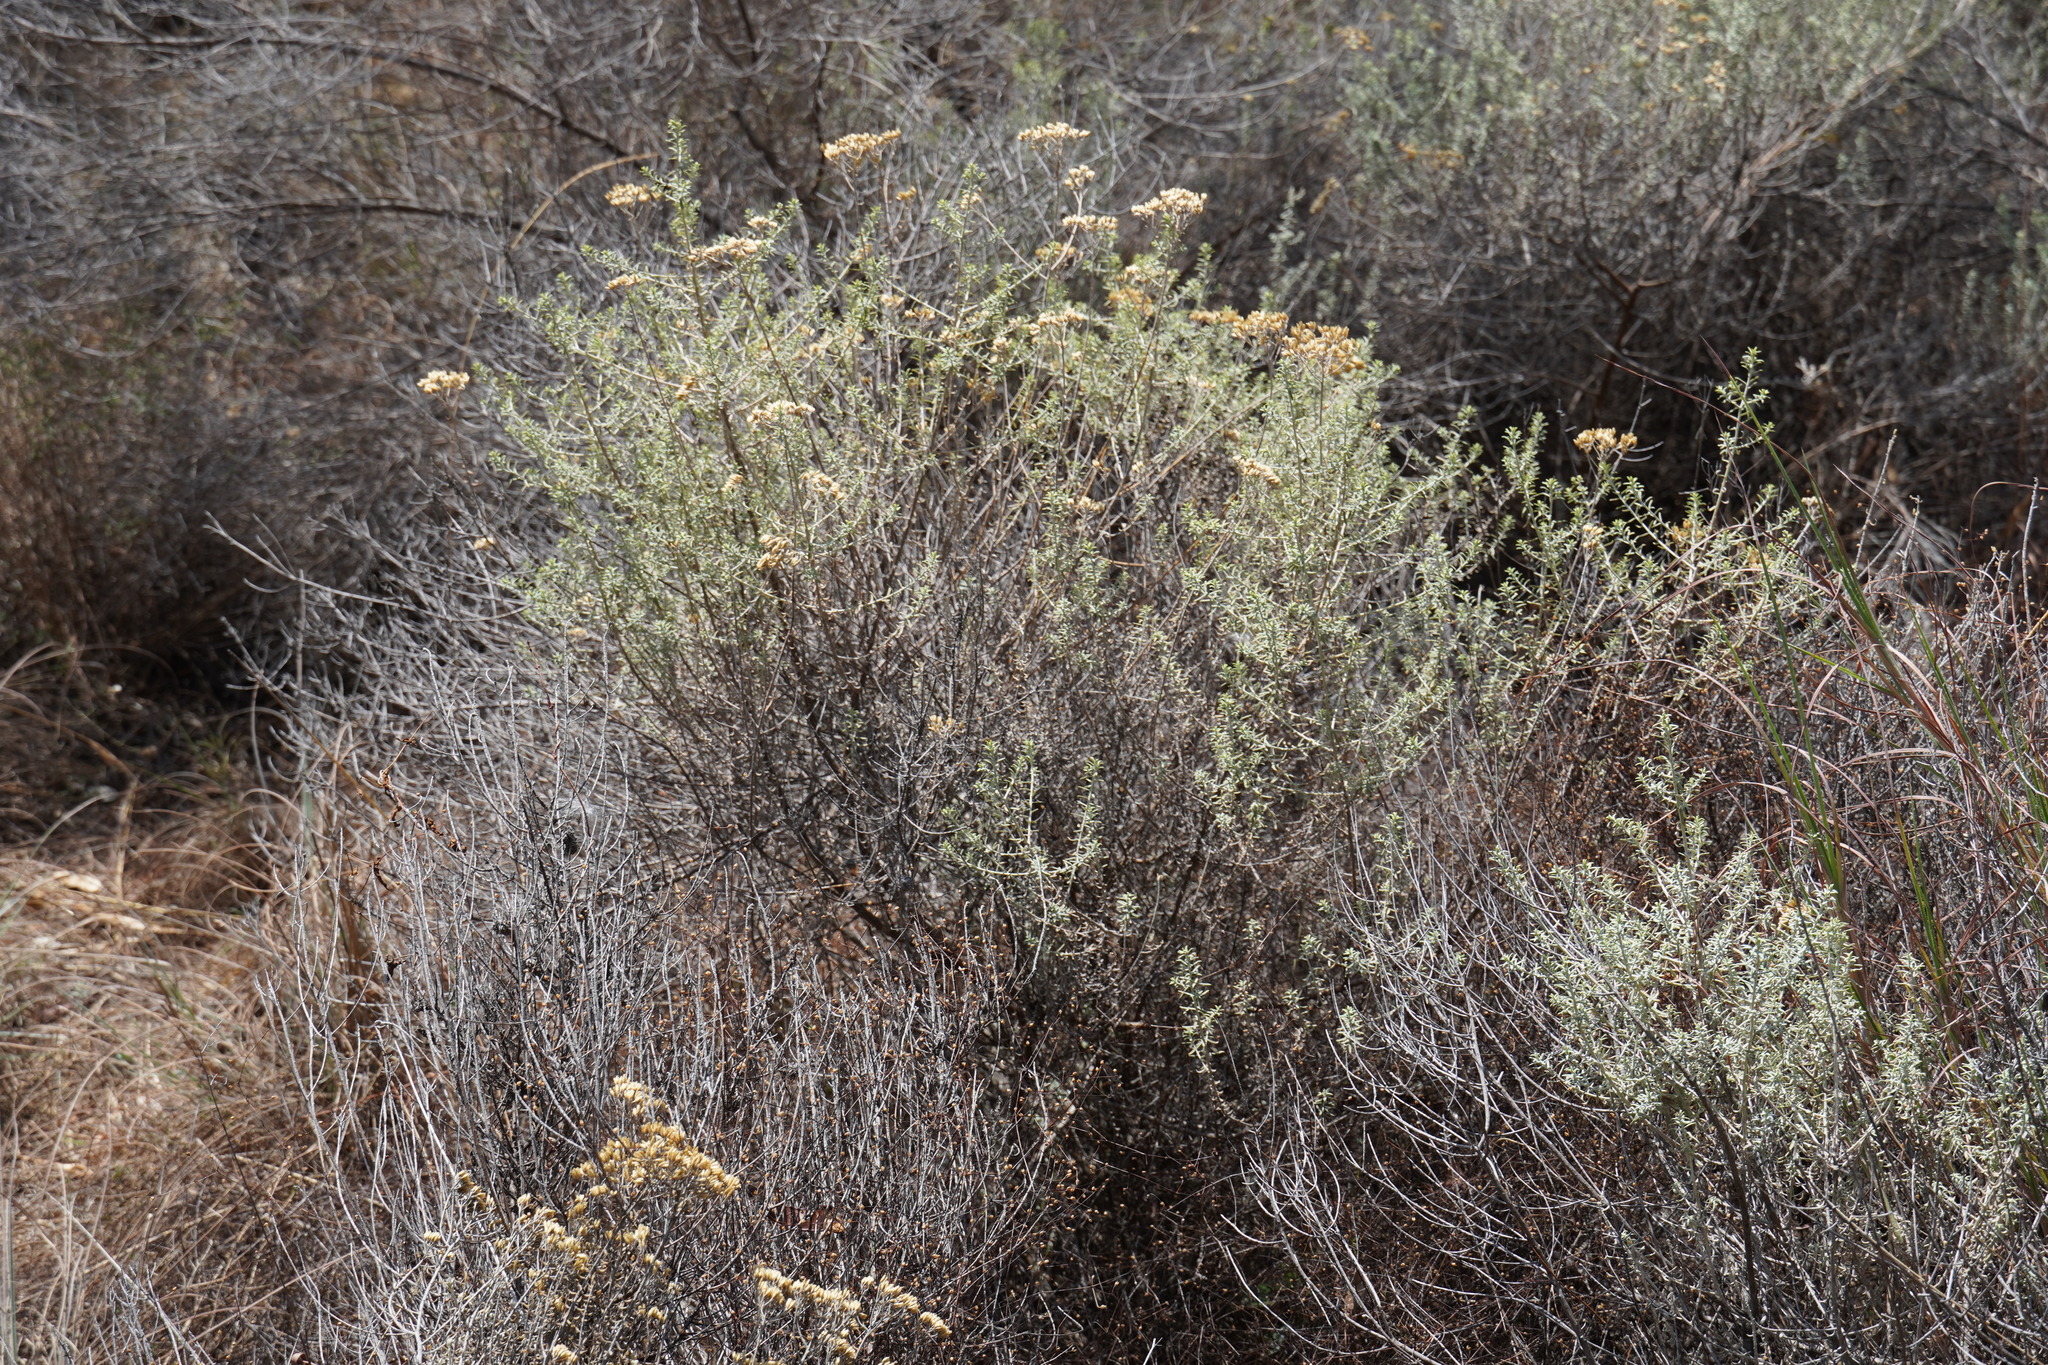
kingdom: Plantae
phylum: Tracheophyta
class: Magnoliopsida
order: Asterales
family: Asteraceae
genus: Helichrysum
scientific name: Helichrysum kraussii
